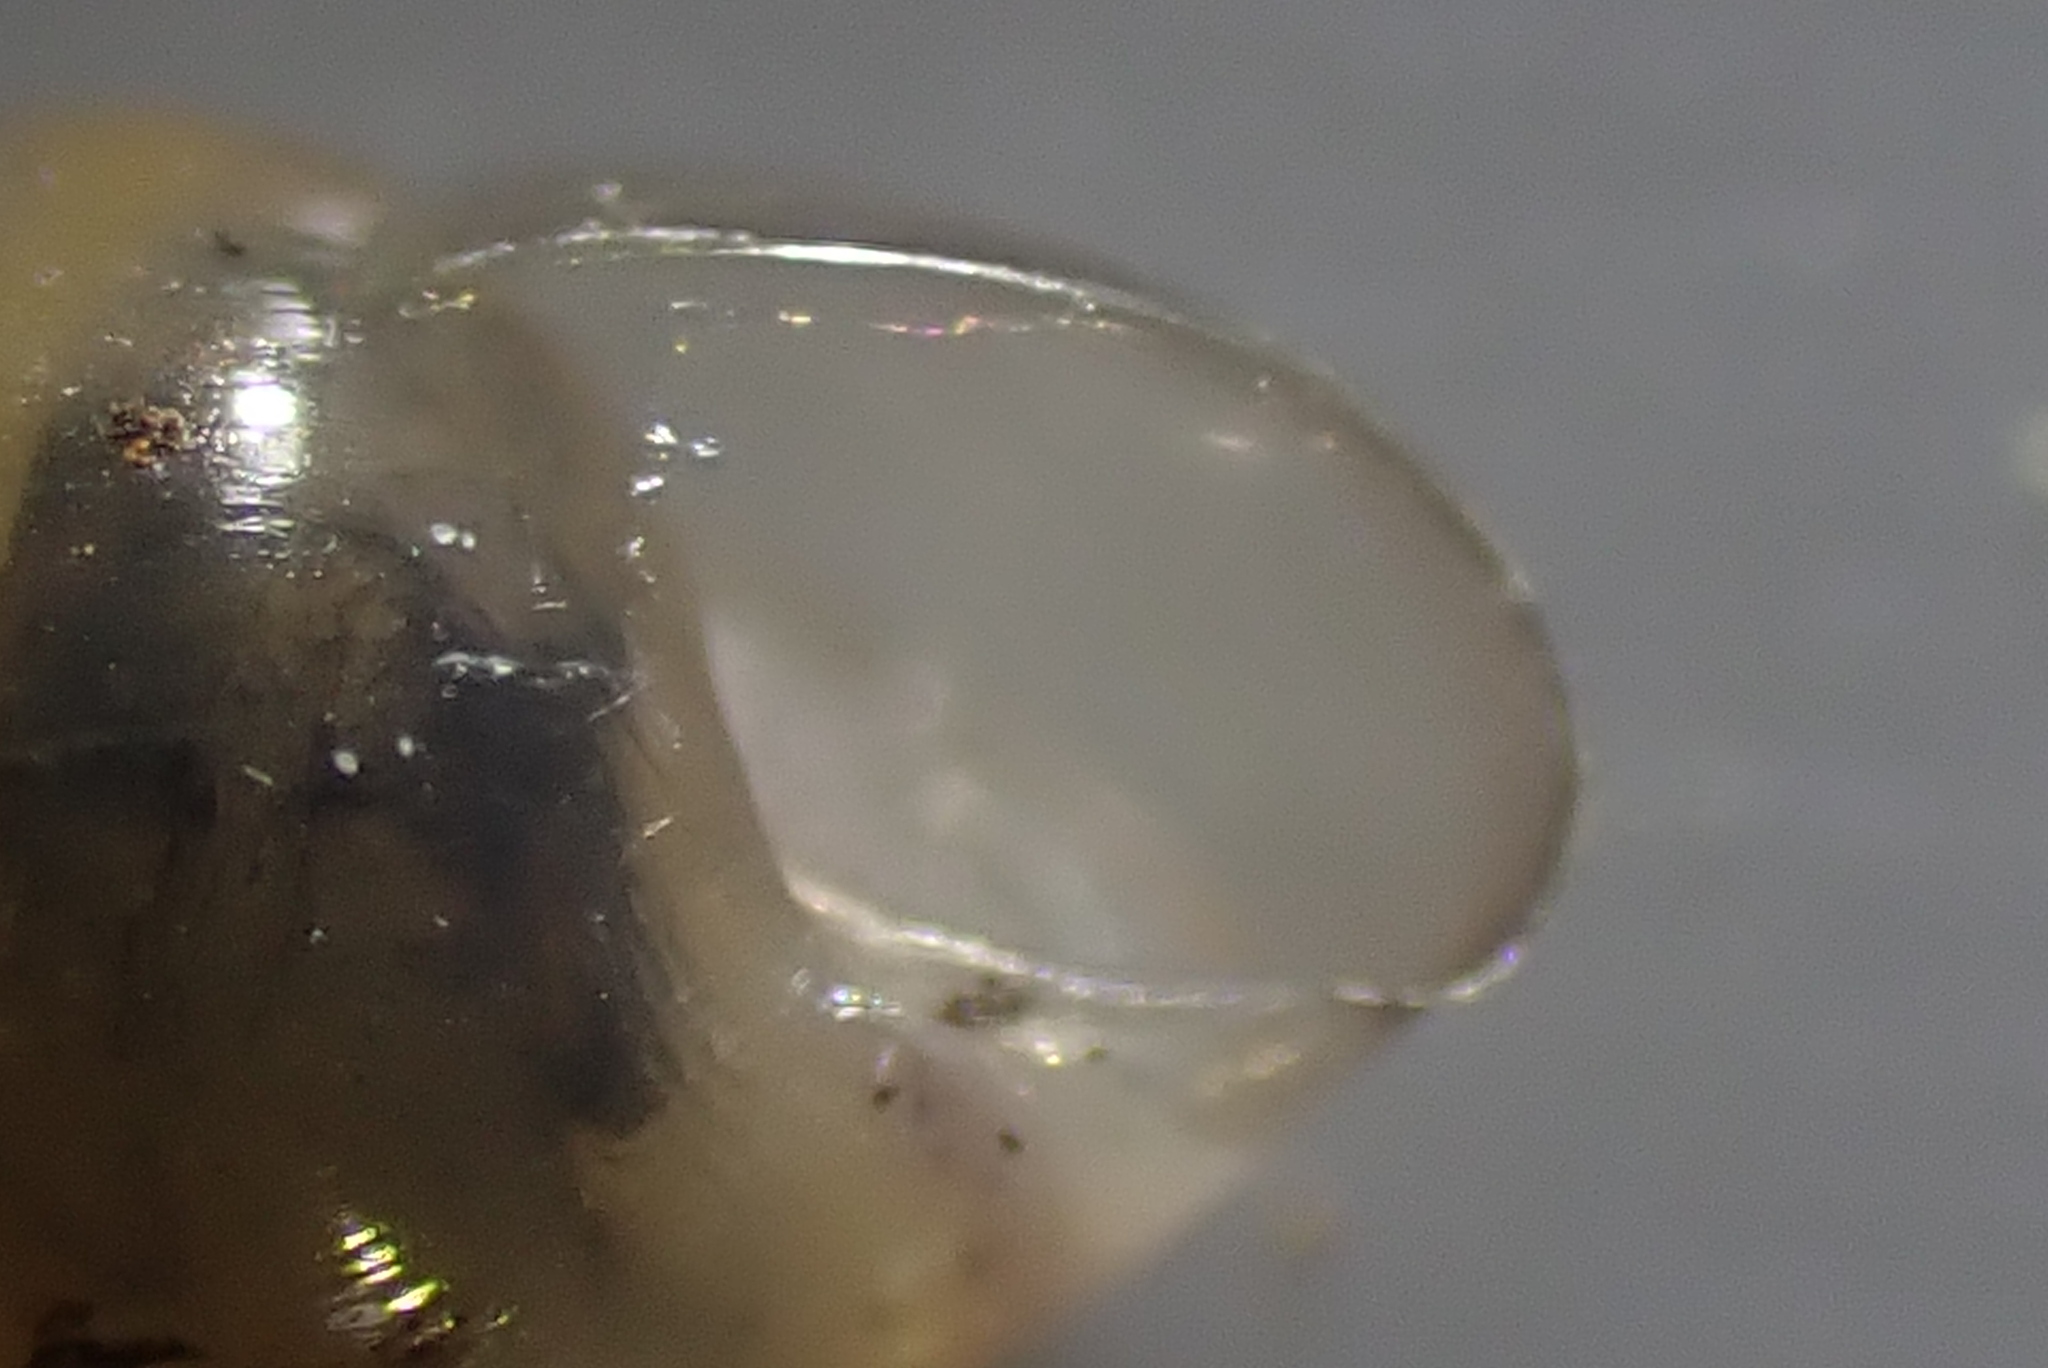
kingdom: Animalia
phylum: Mollusca
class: Gastropoda
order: Stylommatophora
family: Cochlicopidae
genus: Cochlicopa
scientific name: Cochlicopa lubrica
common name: Glossy pillar snail
